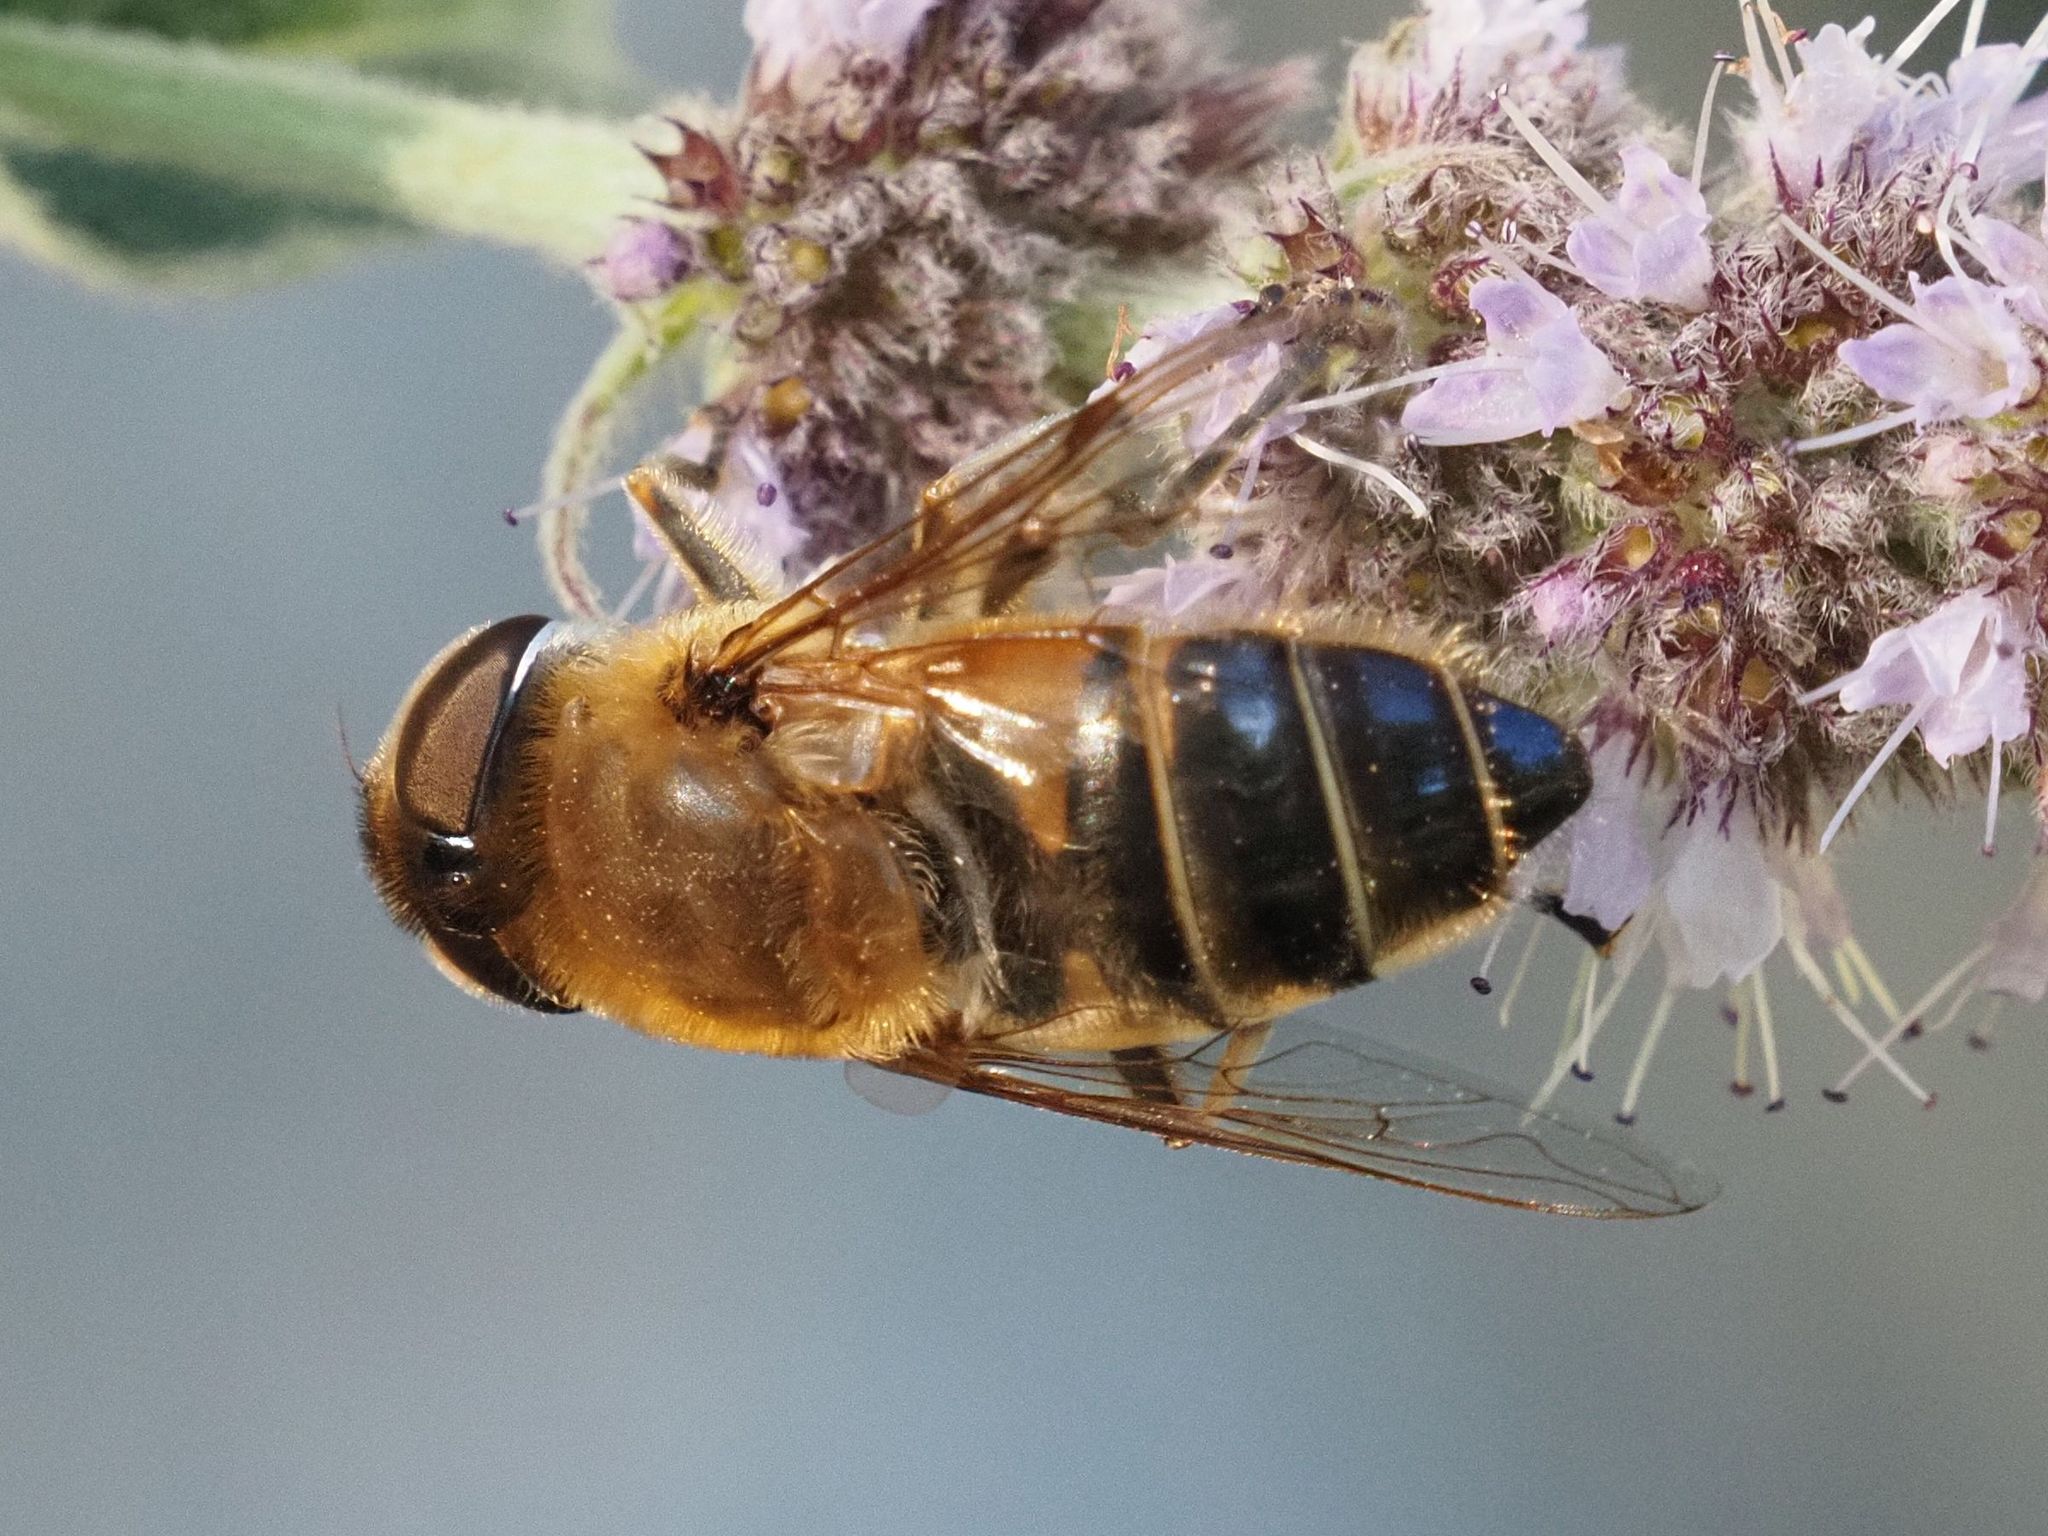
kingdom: Animalia
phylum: Arthropoda
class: Insecta
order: Diptera
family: Syrphidae
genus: Eristalis
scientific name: Eristalis pertinax
